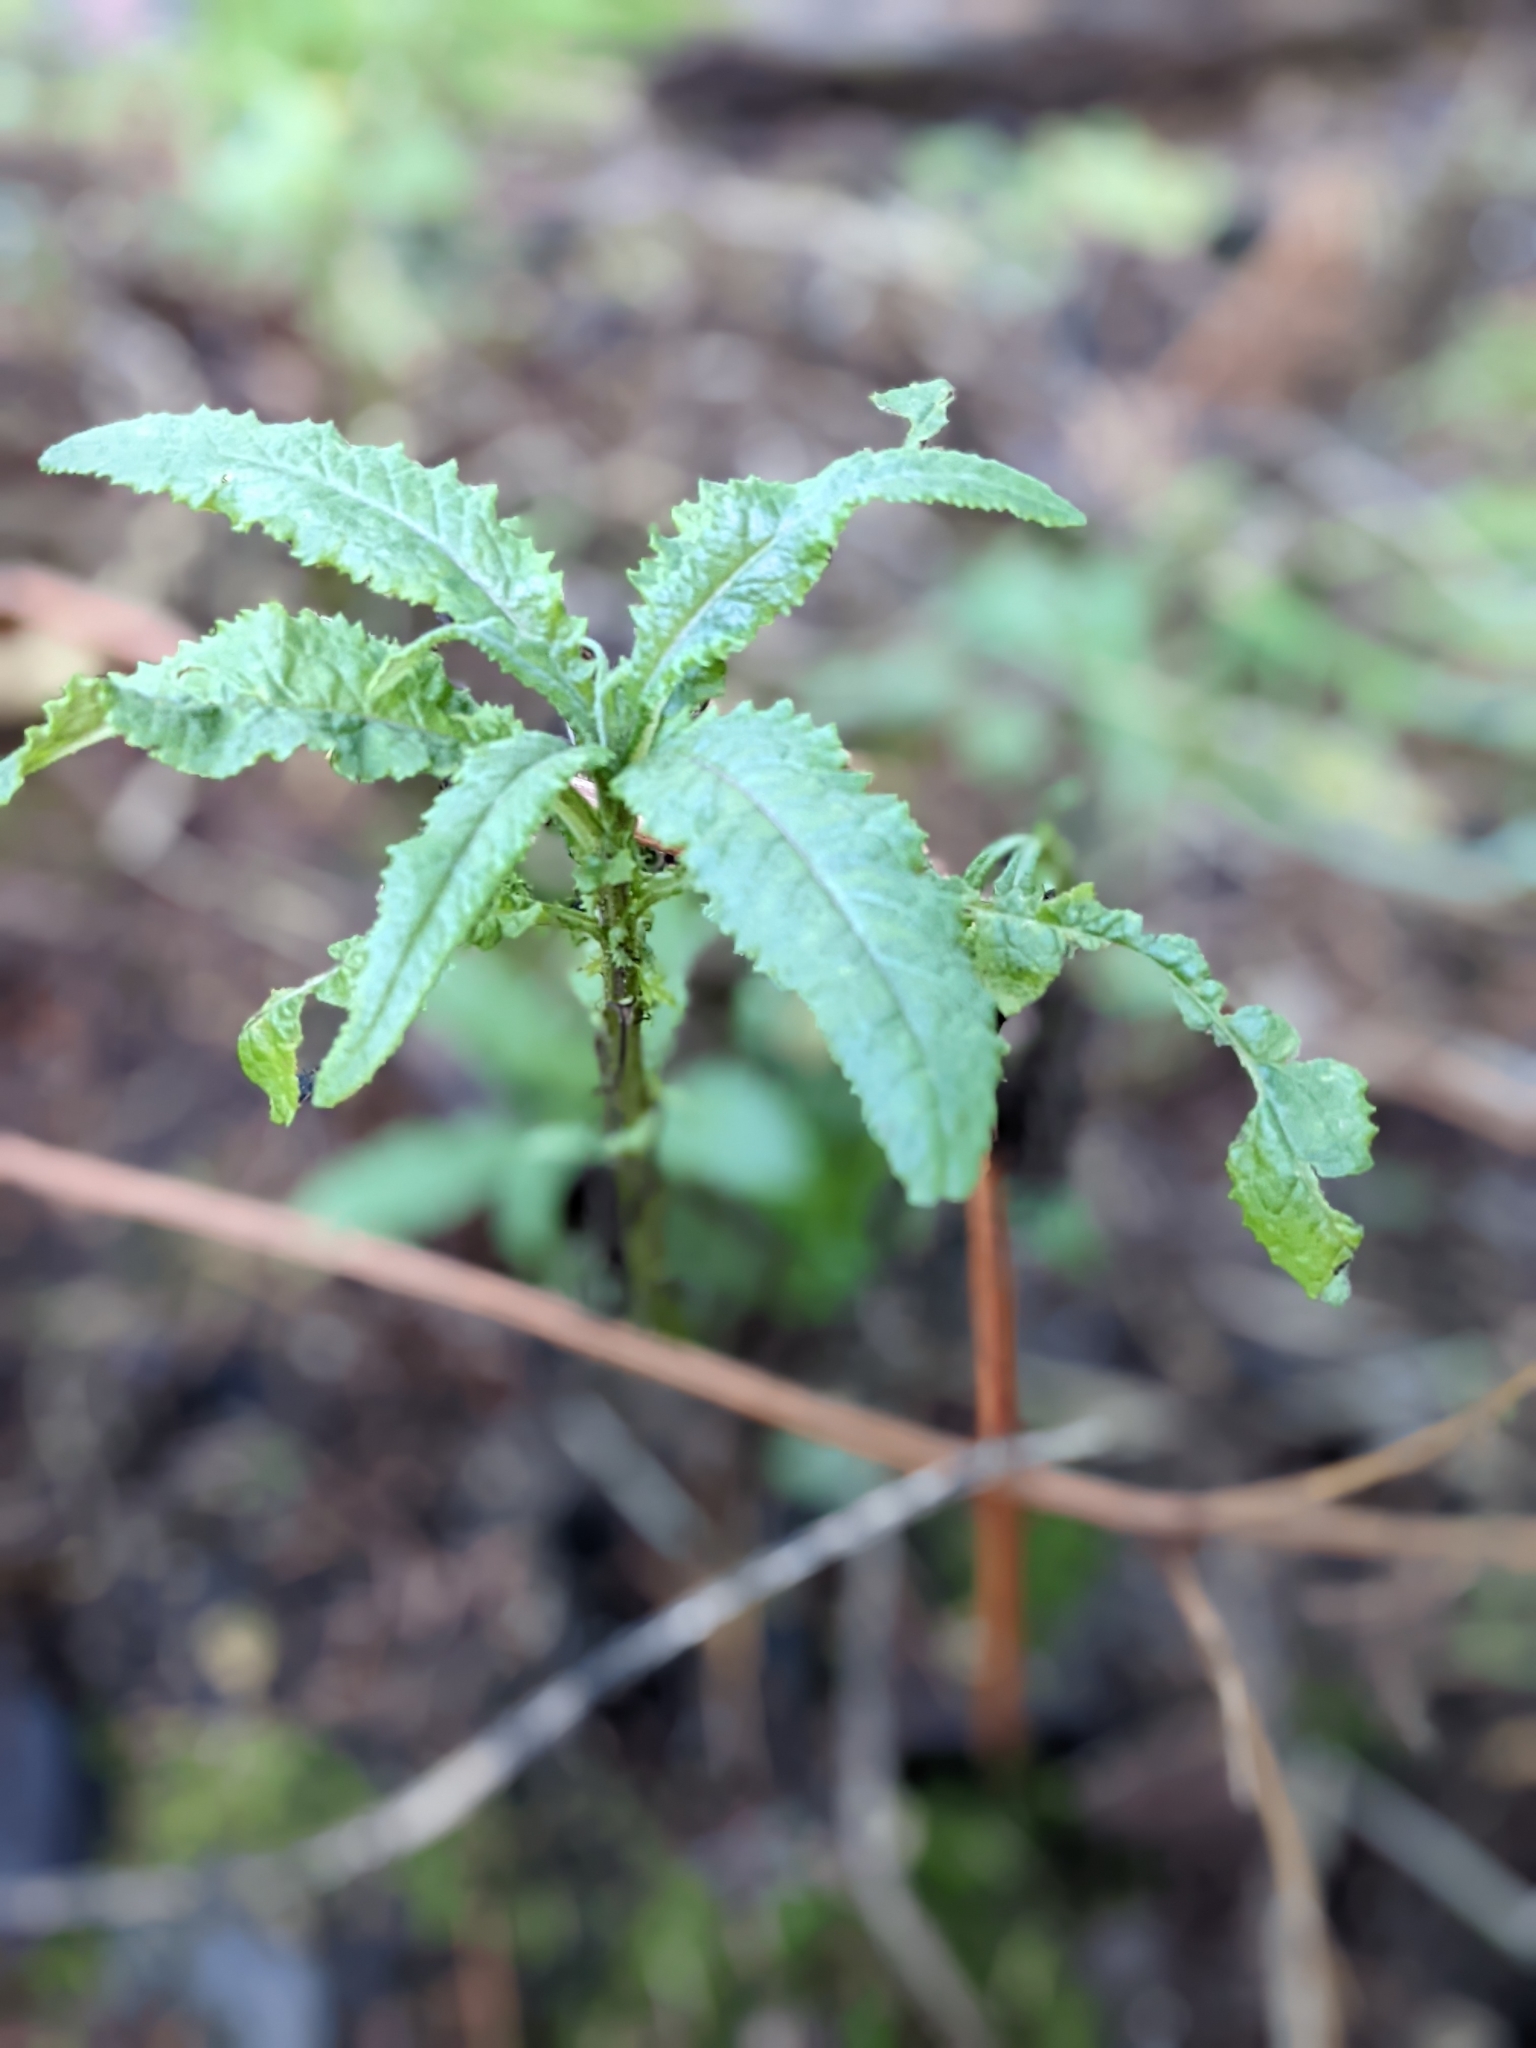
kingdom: Plantae
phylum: Tracheophyta
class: Magnoliopsida
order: Asterales
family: Asteraceae
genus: Senecio
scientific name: Senecio minimus
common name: Toothed fireweed
